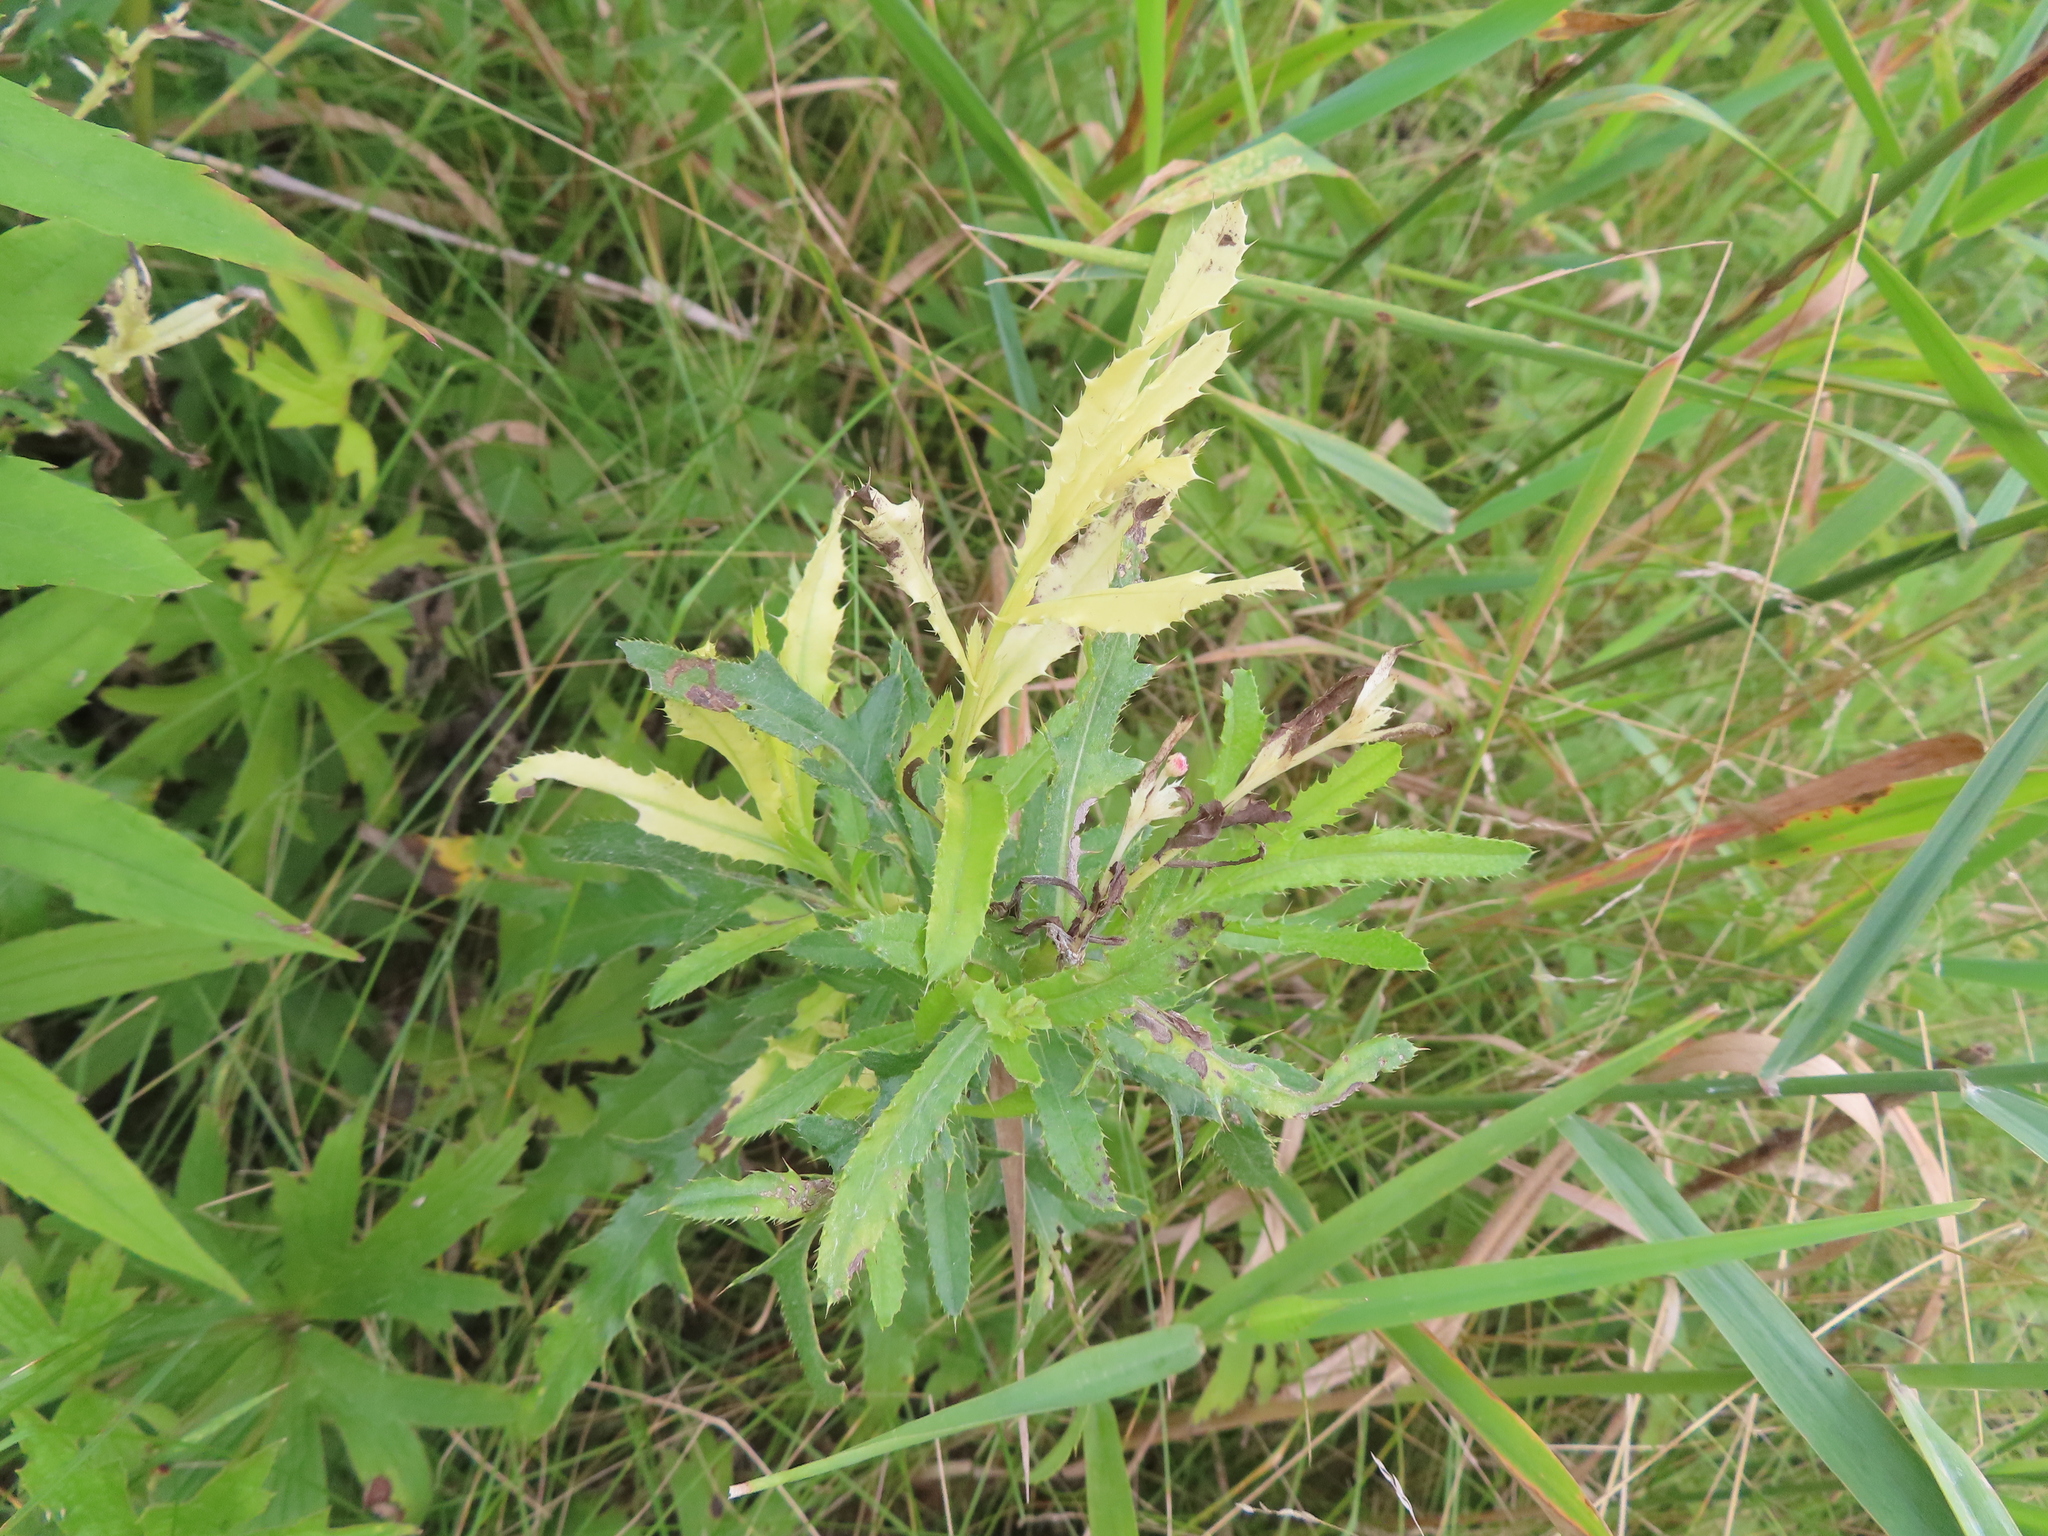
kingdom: Plantae
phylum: Tracheophyta
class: Magnoliopsida
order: Asterales
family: Asteraceae
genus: Cirsium
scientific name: Cirsium arvense
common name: Creeping thistle
